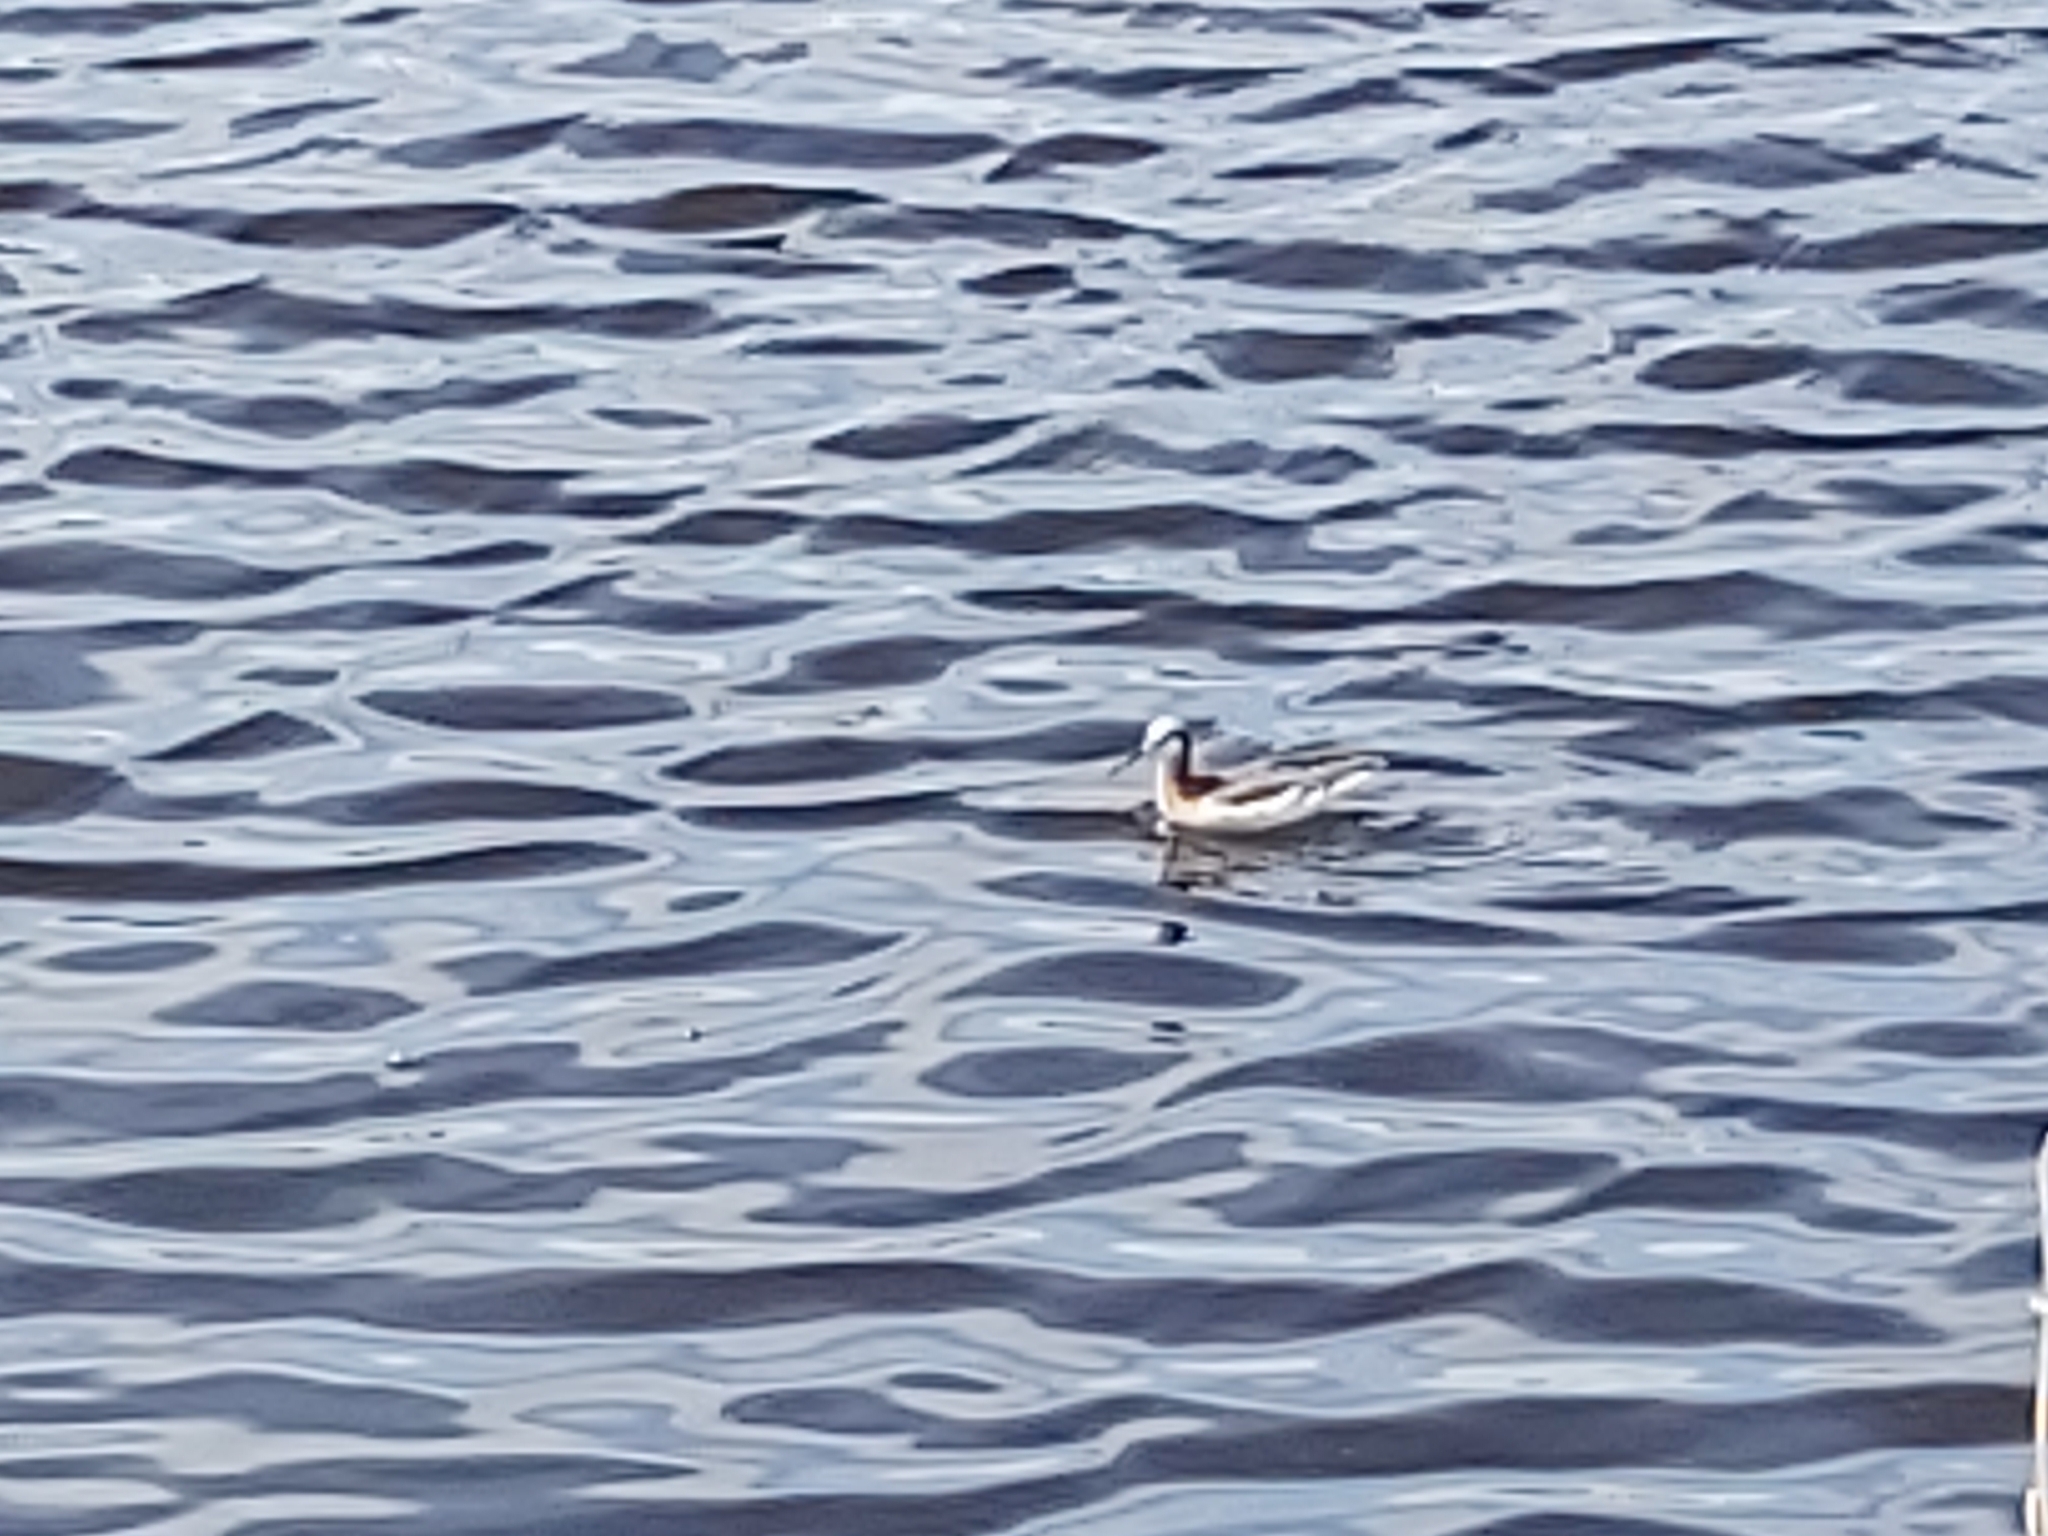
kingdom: Animalia
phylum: Chordata
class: Aves
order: Charadriiformes
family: Scolopacidae
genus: Phalaropus
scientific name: Phalaropus tricolor
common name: Wilson's phalarope
